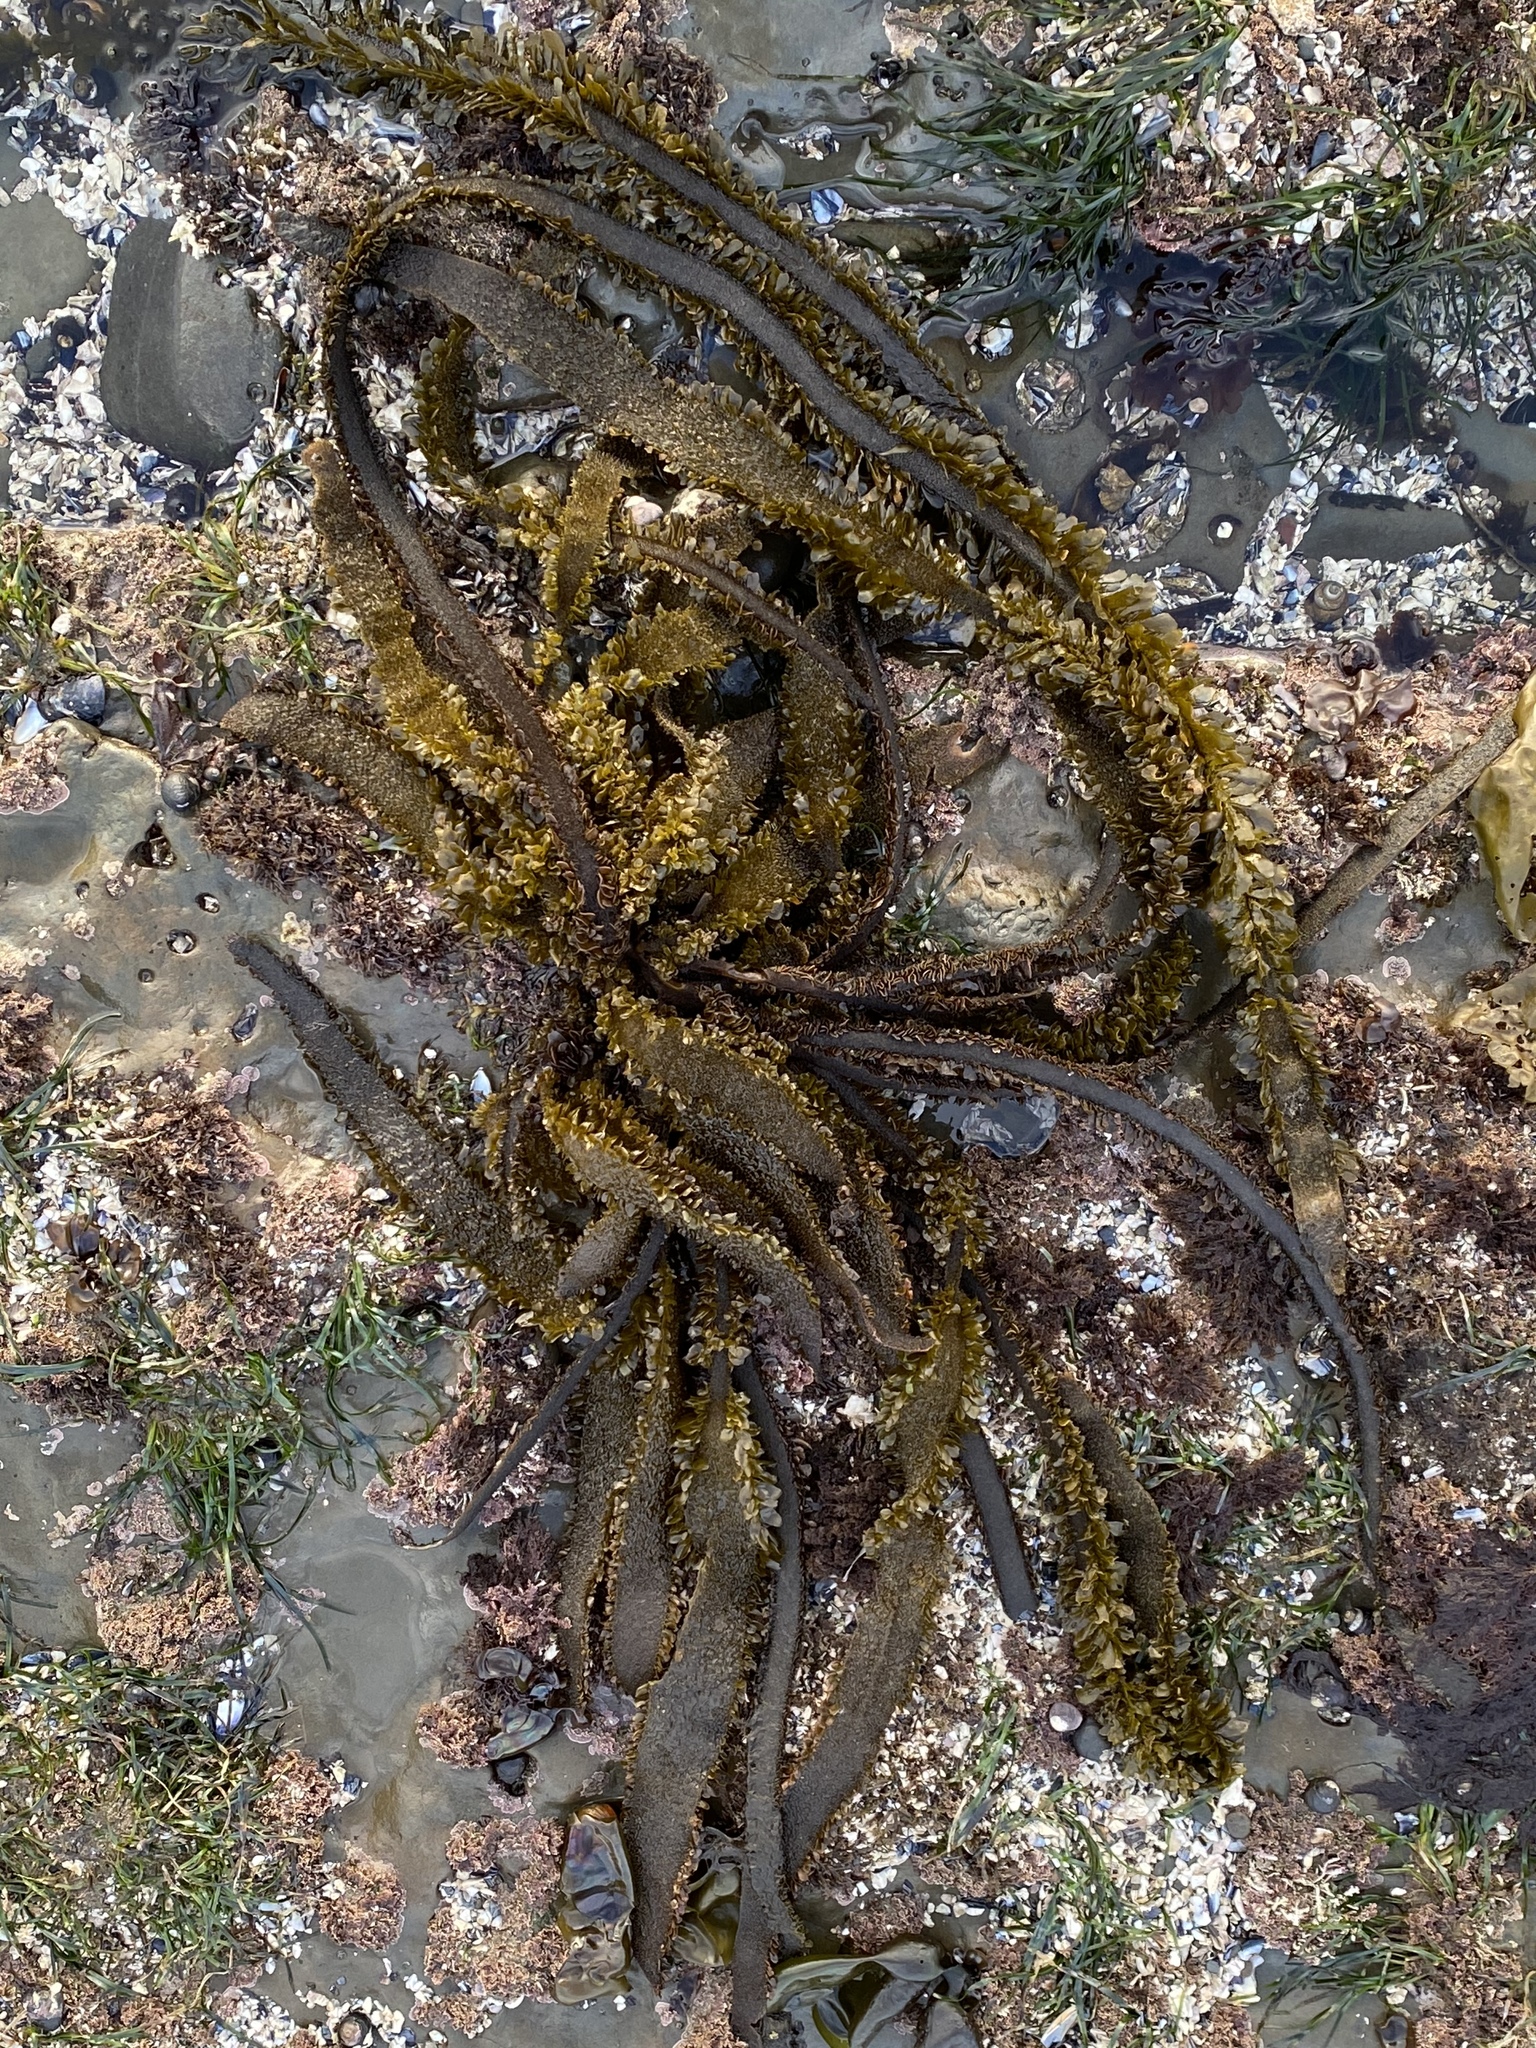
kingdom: Chromista
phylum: Ochrophyta
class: Phaeophyceae
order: Laminariales
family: Lessoniaceae
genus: Egregia
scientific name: Egregia menziesii
